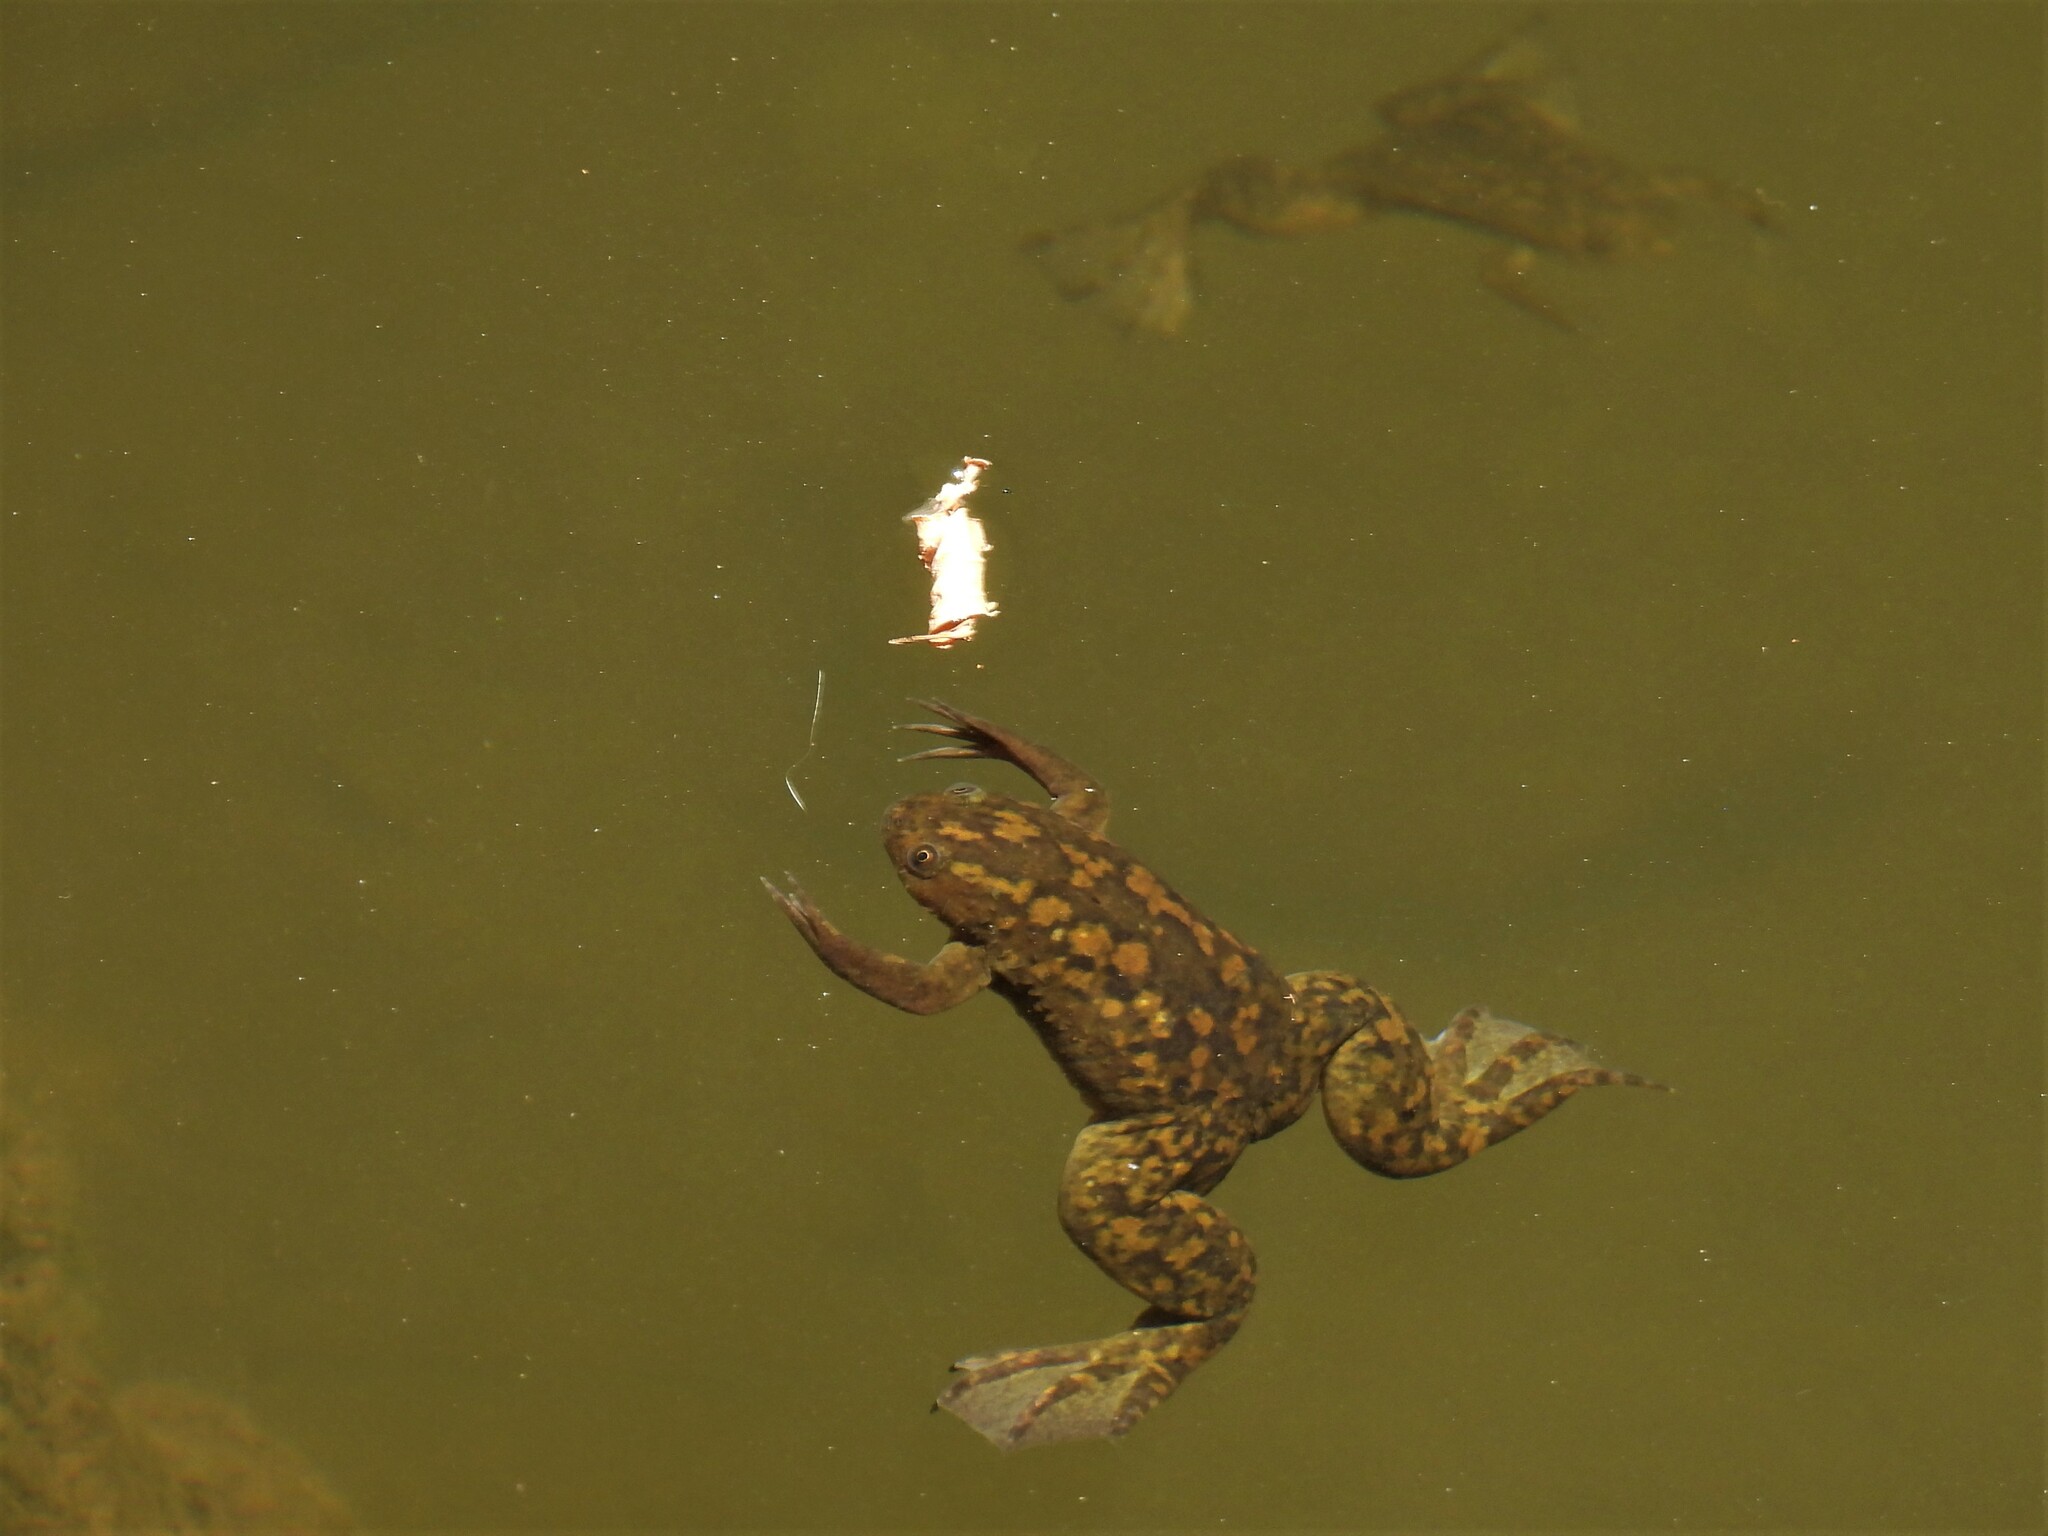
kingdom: Animalia
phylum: Chordata
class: Amphibia
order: Anura
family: Pipidae
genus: Xenopus
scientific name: Xenopus laevis
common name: African clawed frog
